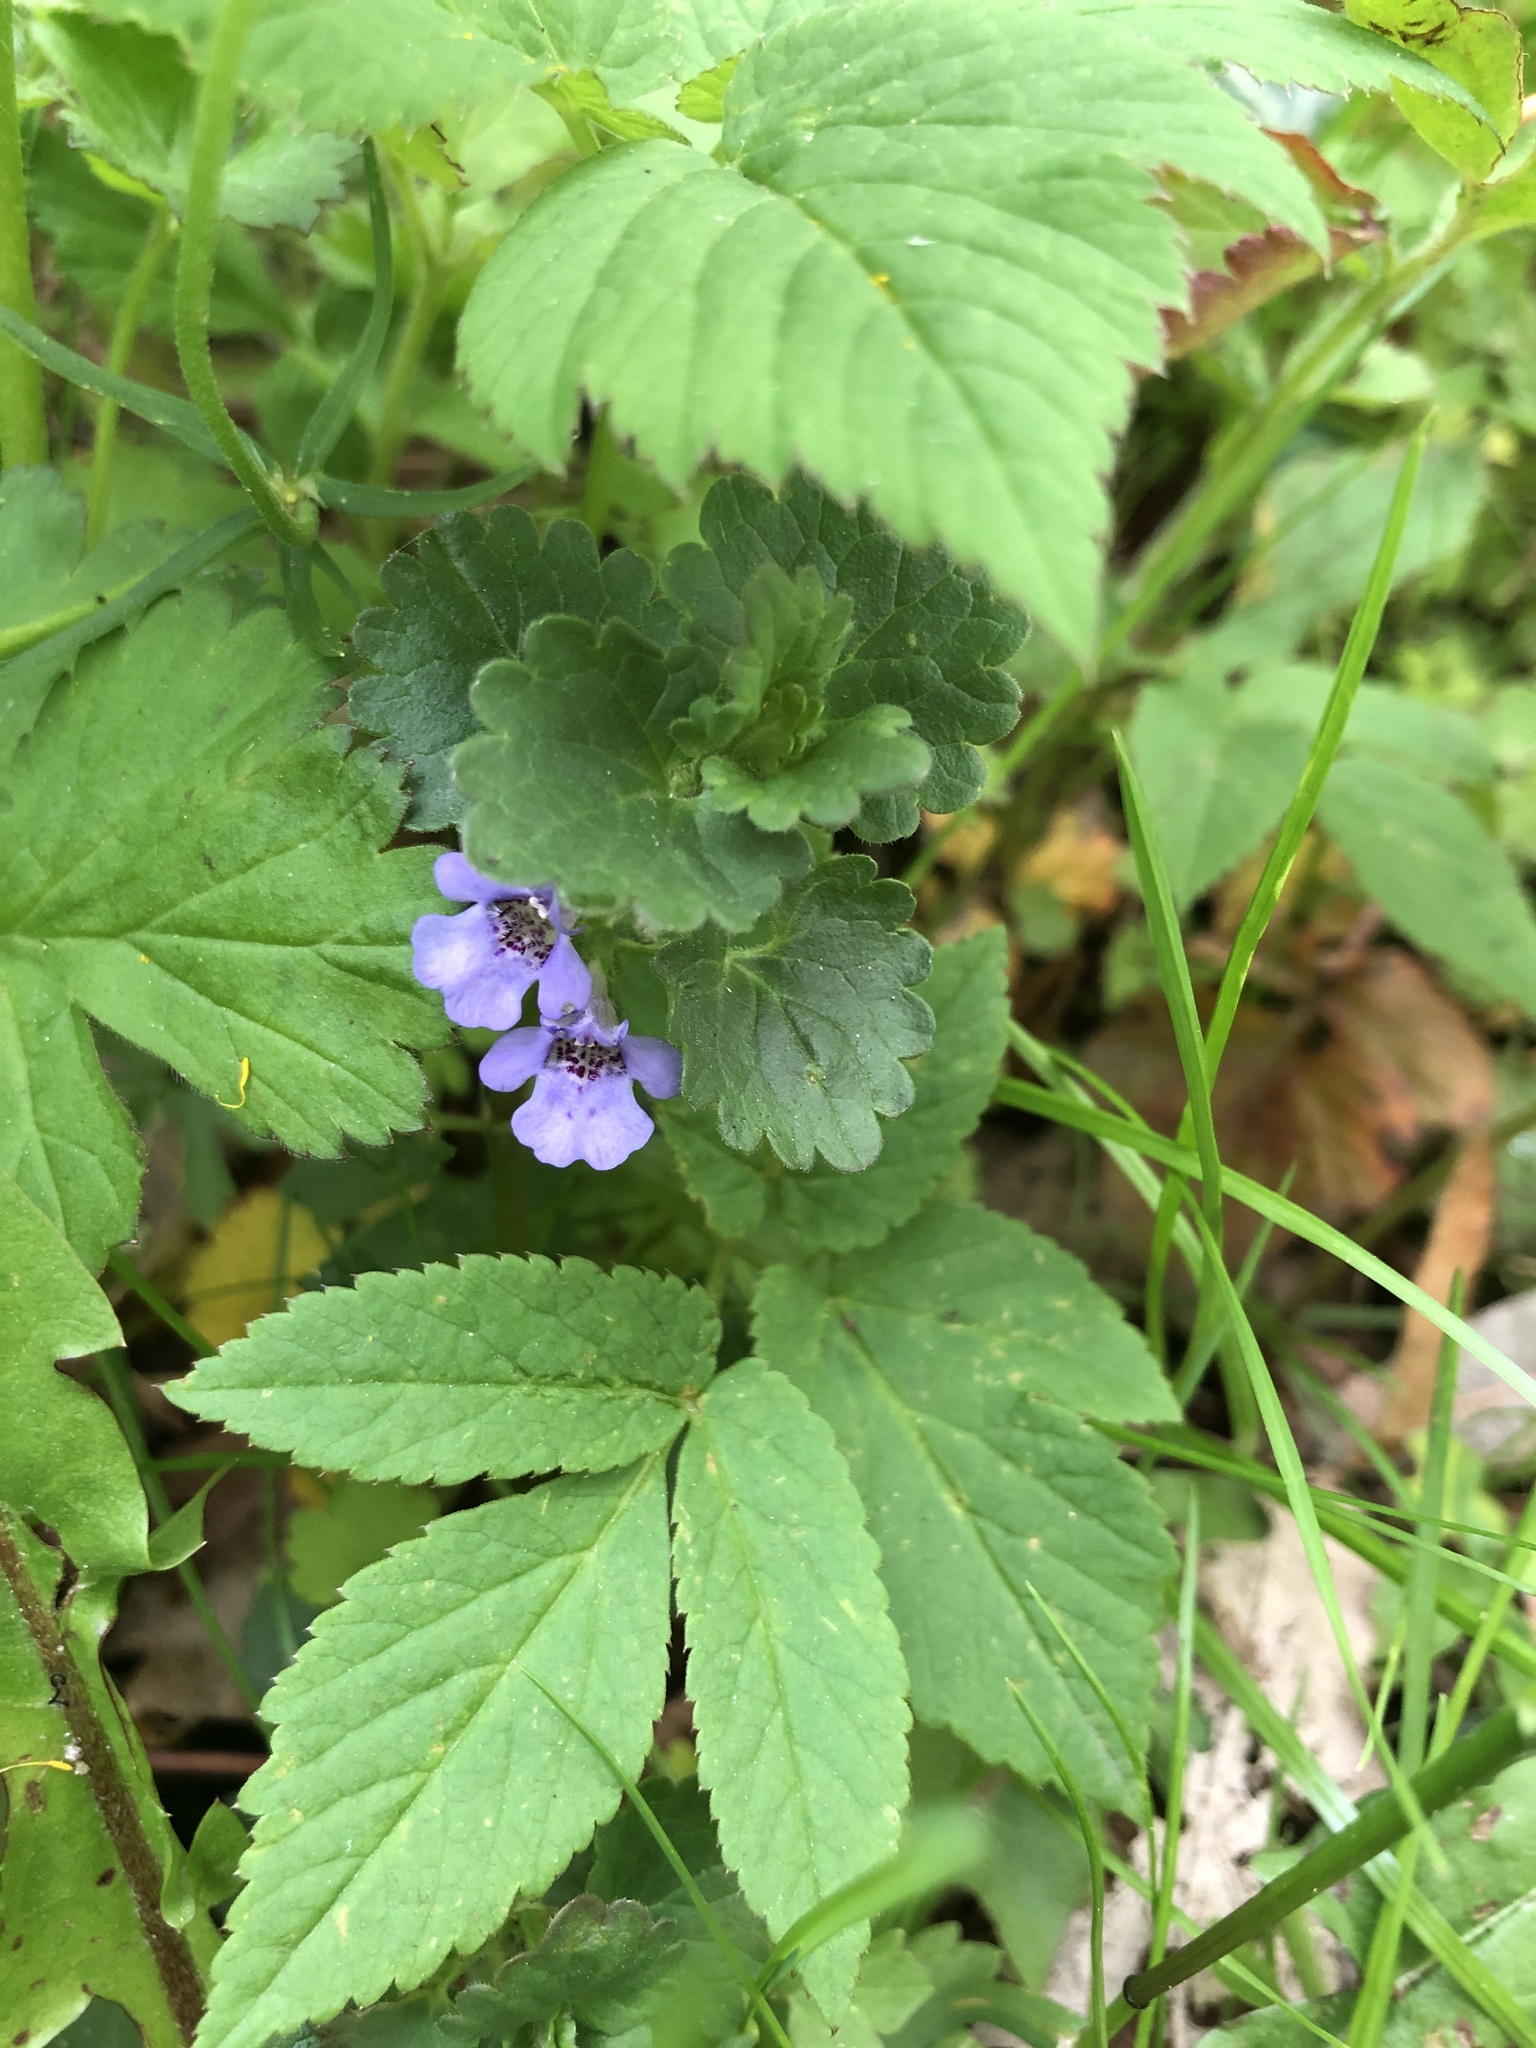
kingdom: Plantae
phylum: Tracheophyta
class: Magnoliopsida
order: Lamiales
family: Lamiaceae
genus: Glechoma
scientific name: Glechoma hederacea
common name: Ground ivy
